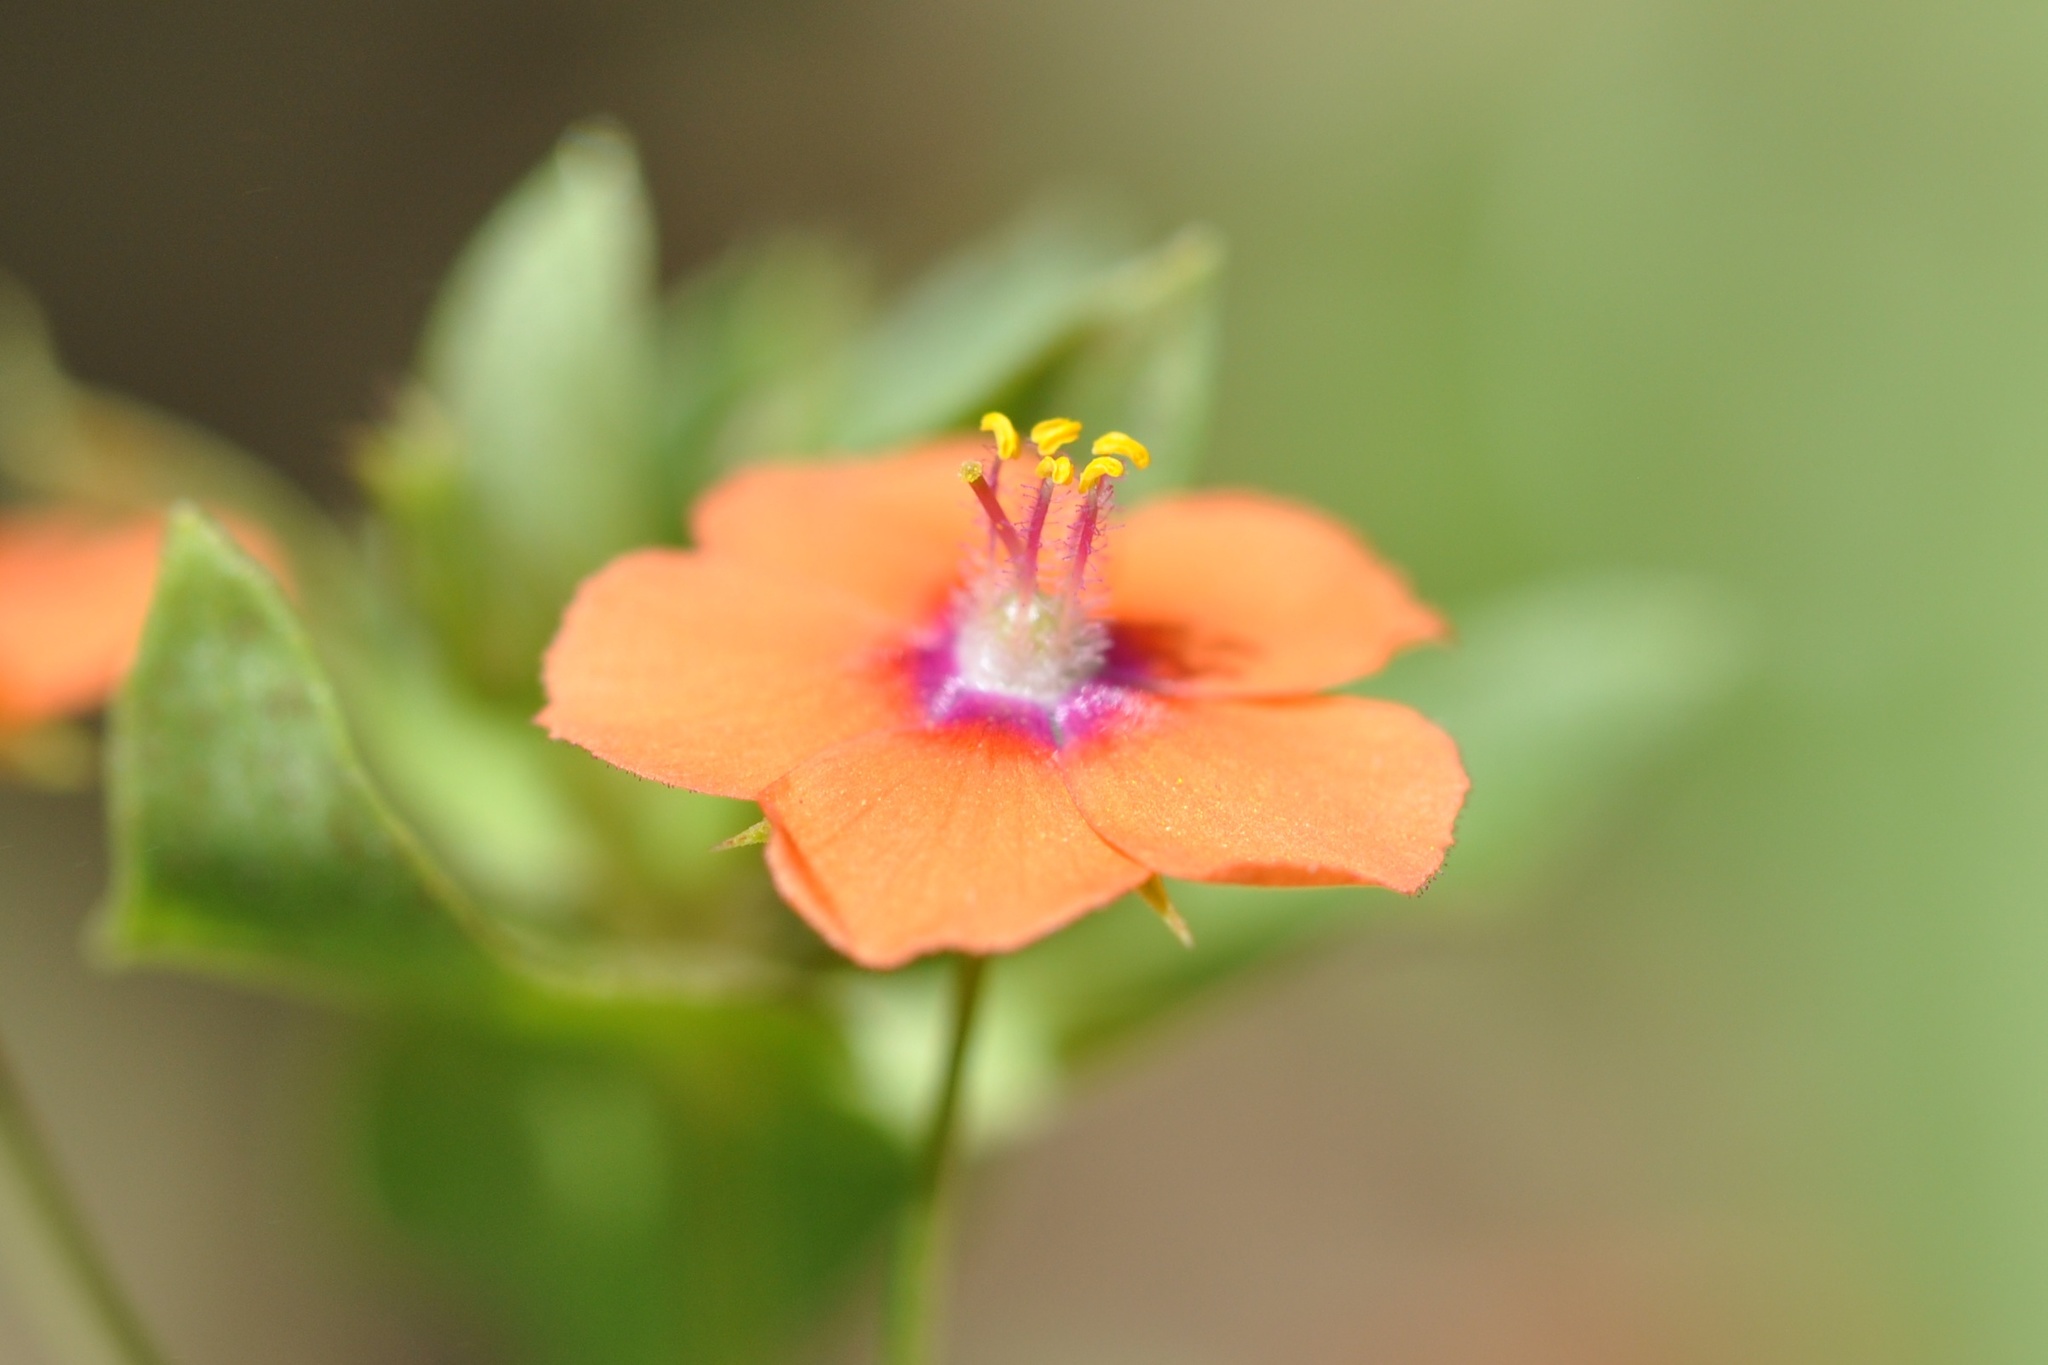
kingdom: Plantae
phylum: Tracheophyta
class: Magnoliopsida
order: Ericales
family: Primulaceae
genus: Lysimachia
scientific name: Lysimachia arvensis
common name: Scarlet pimpernel
